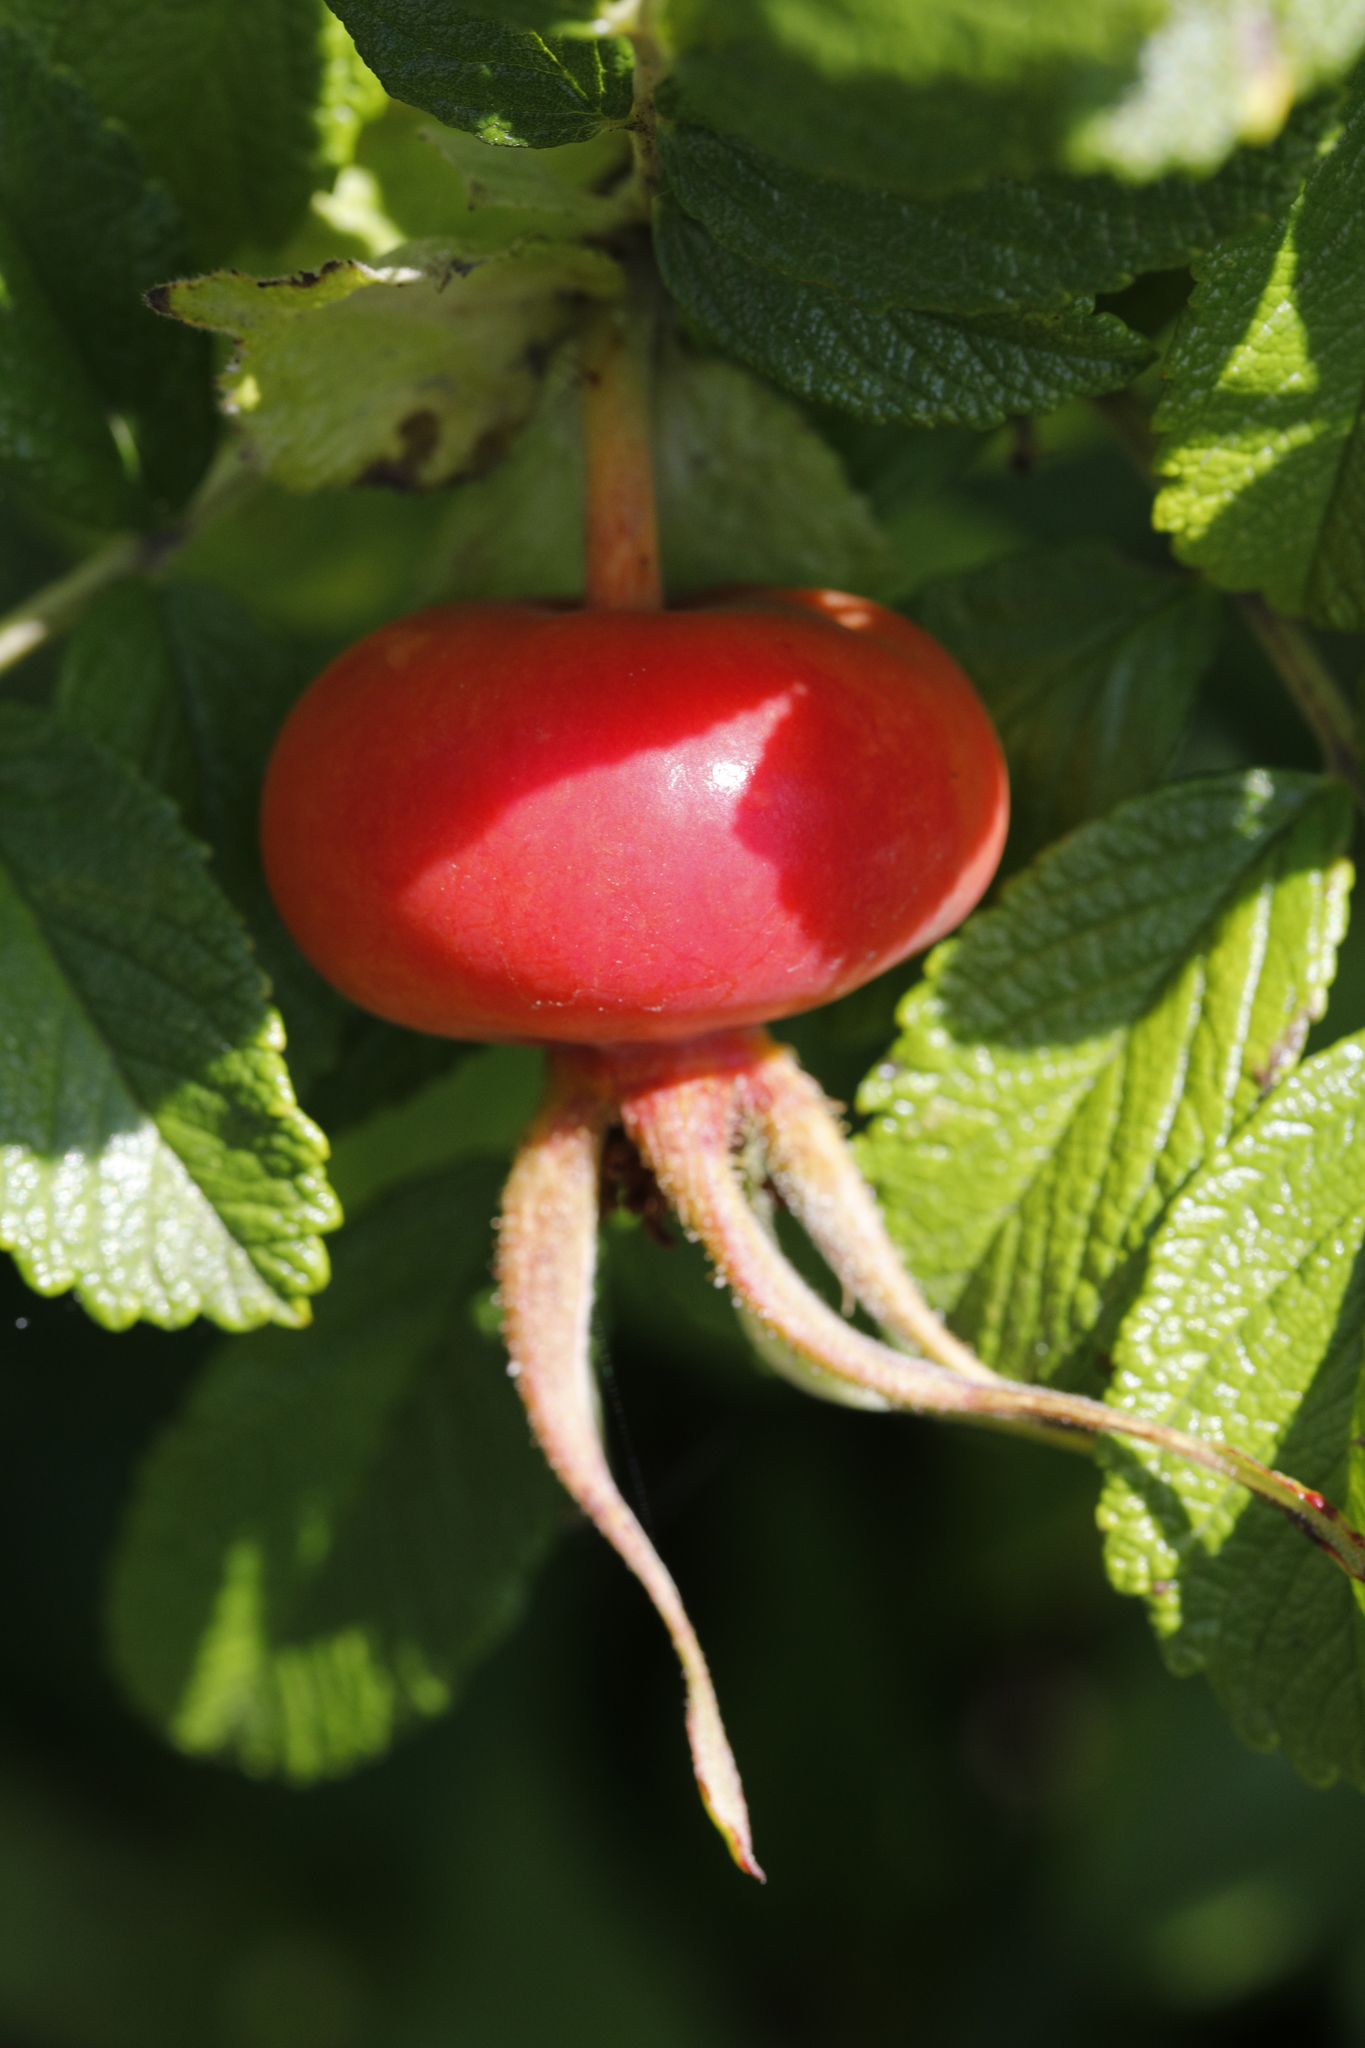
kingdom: Plantae
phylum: Tracheophyta
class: Magnoliopsida
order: Rosales
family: Rosaceae
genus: Rosa
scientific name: Rosa rugosa
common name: Japanese rose
